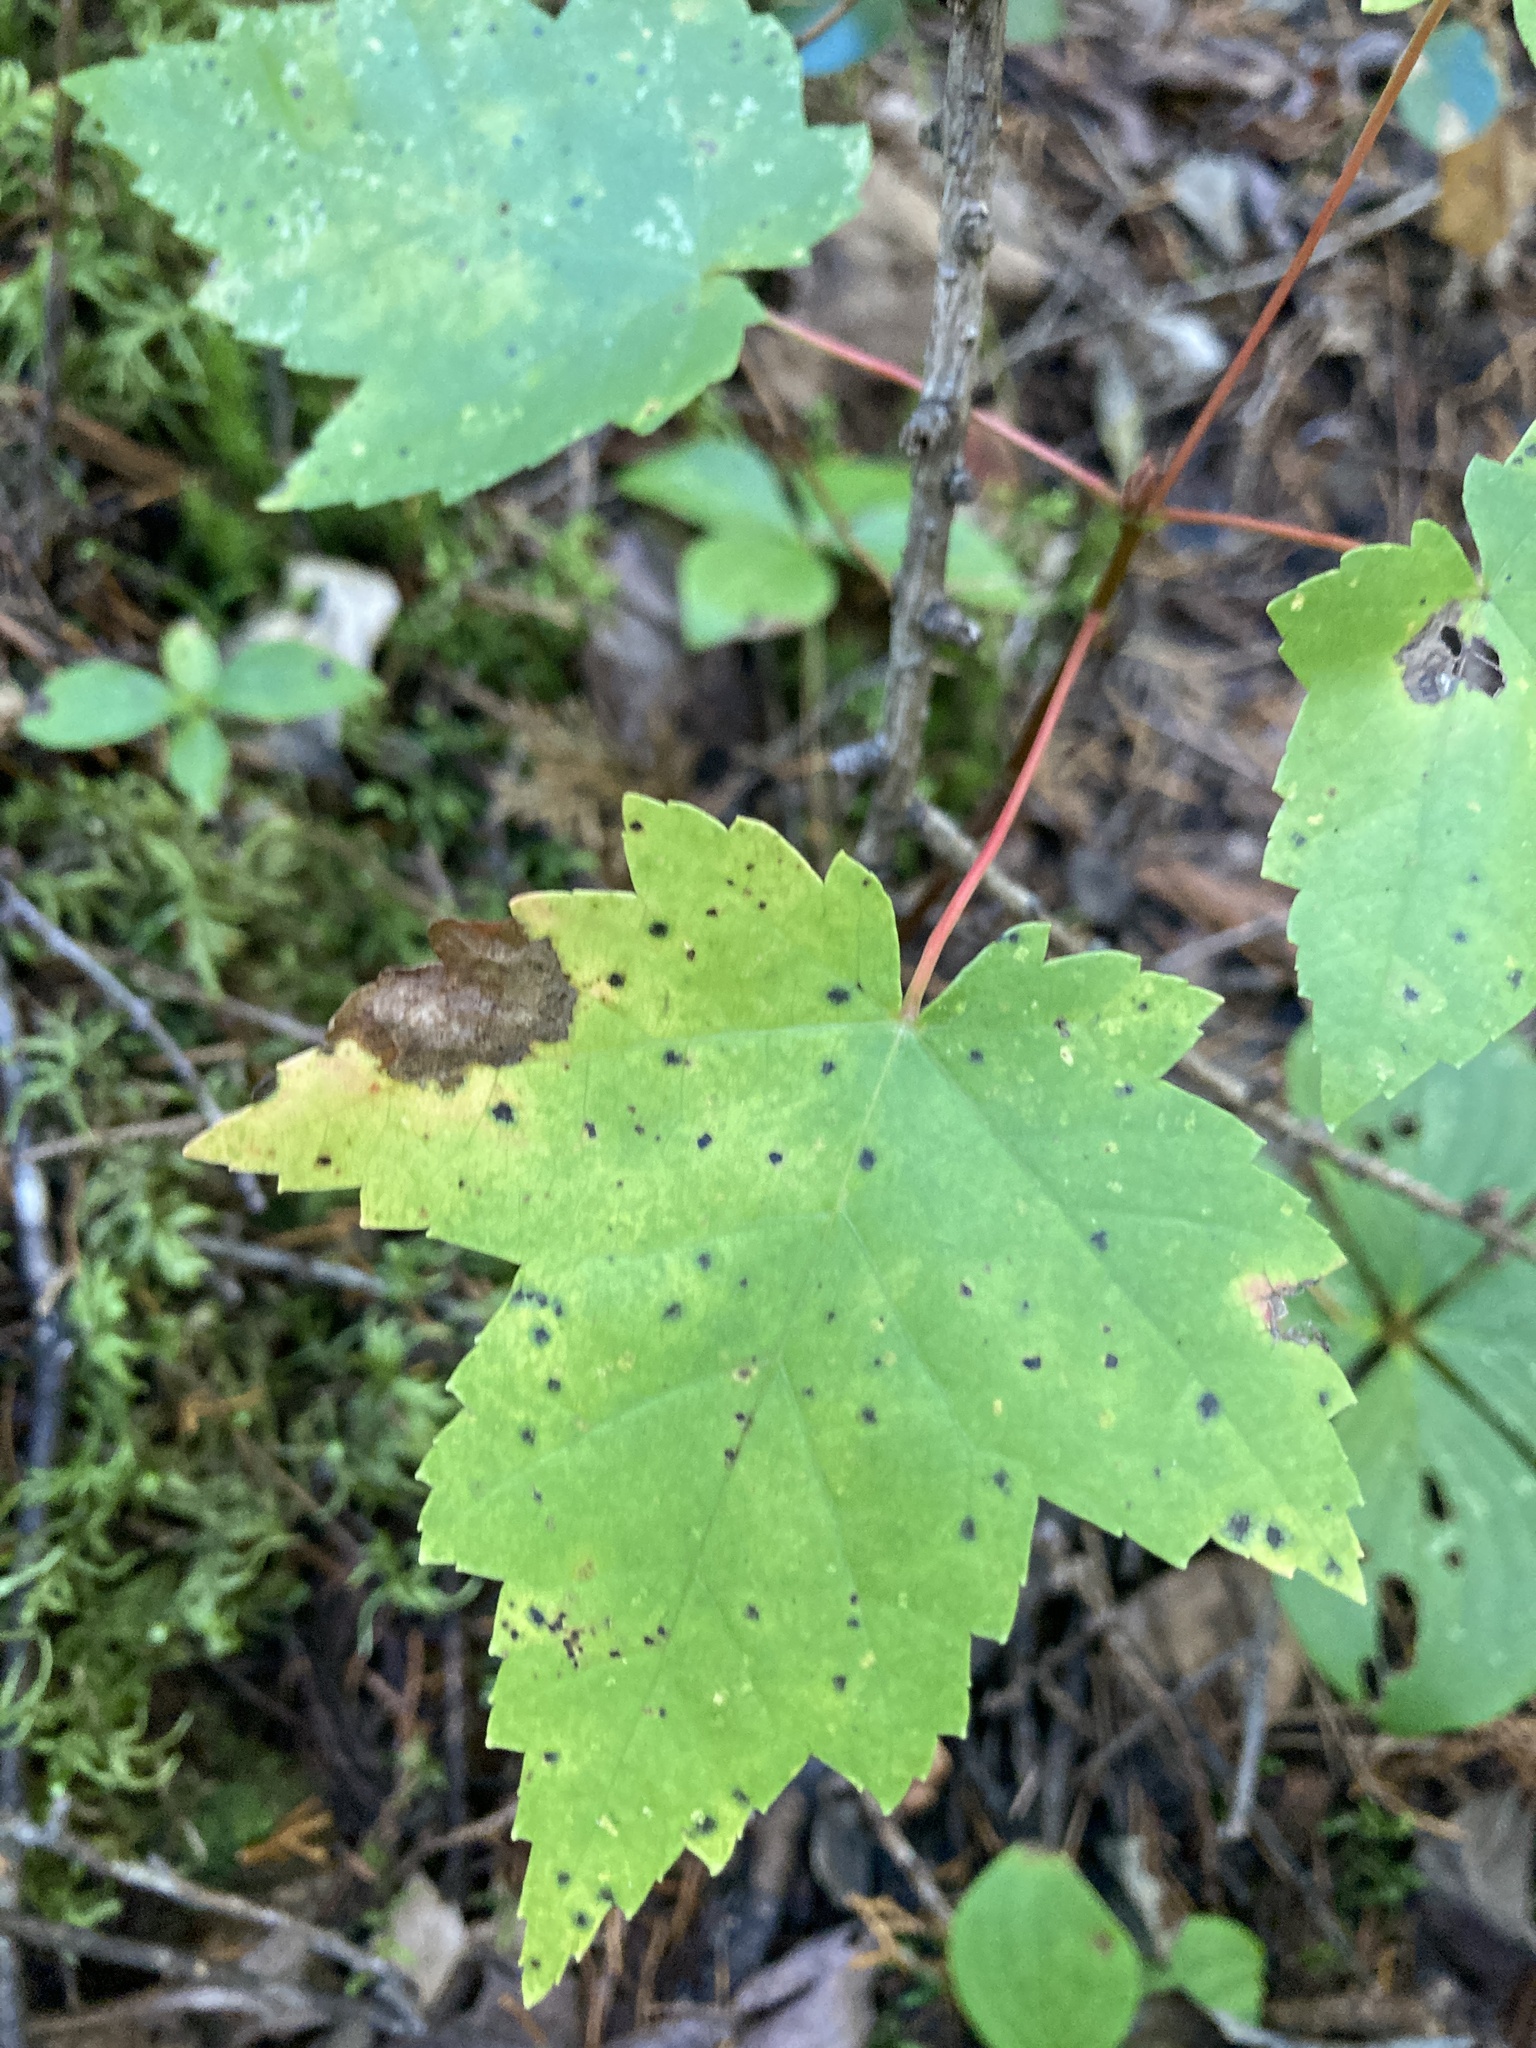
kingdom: Plantae
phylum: Tracheophyta
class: Magnoliopsida
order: Sapindales
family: Sapindaceae
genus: Acer
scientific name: Acer rubrum
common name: Red maple
